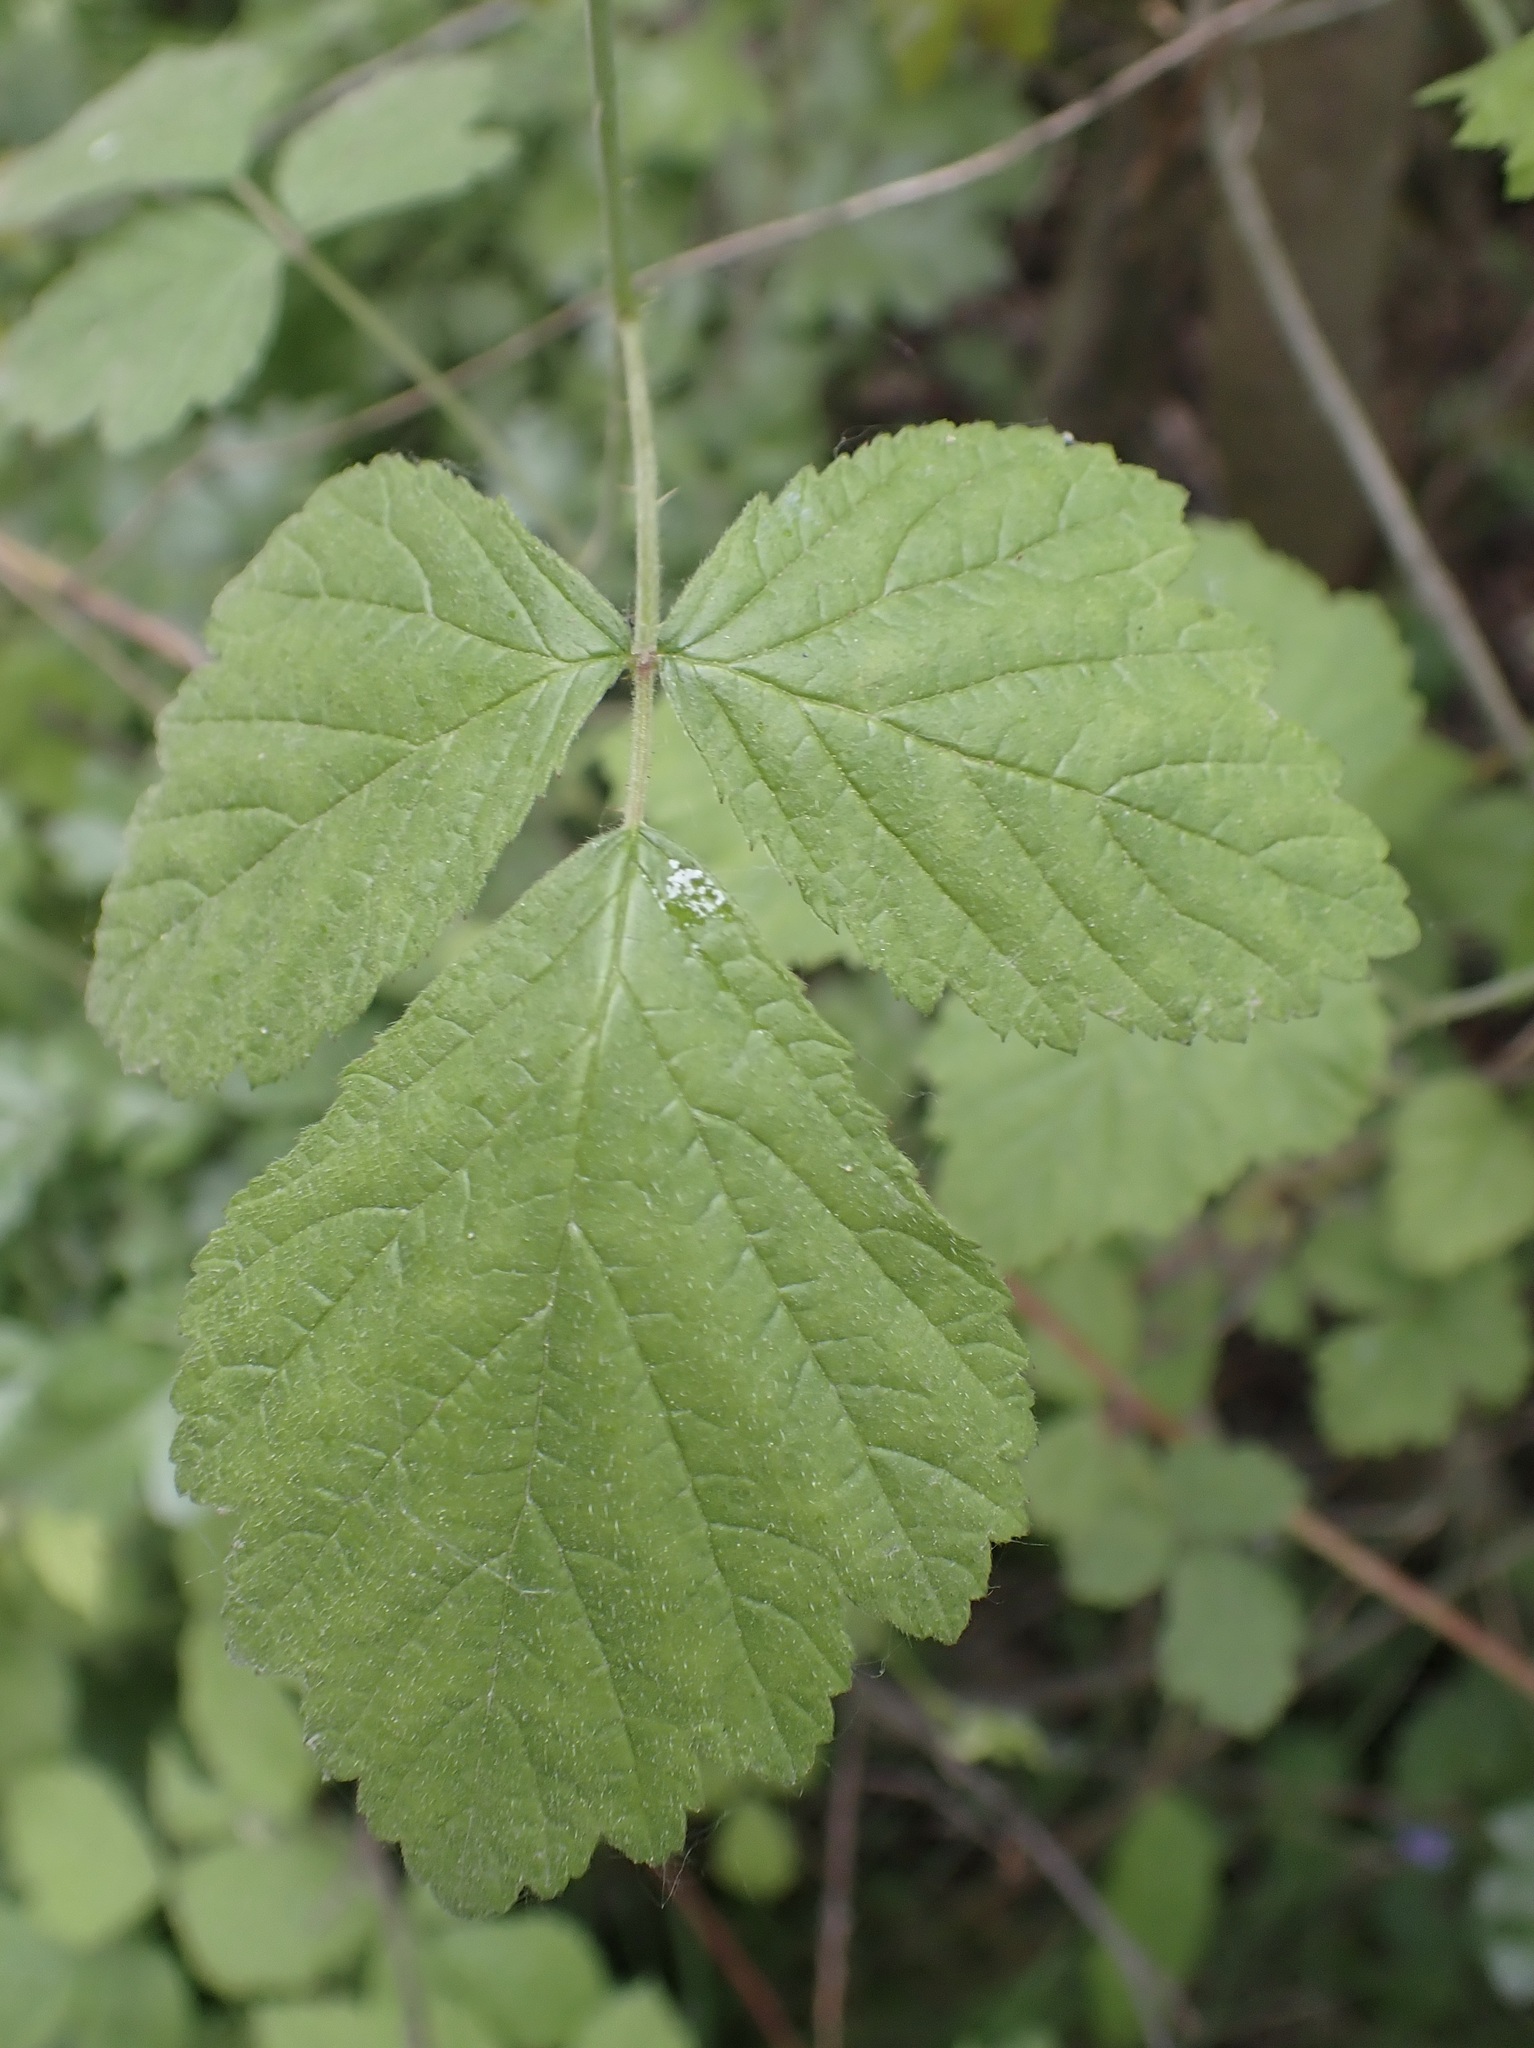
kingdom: Plantae
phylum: Tracheophyta
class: Magnoliopsida
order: Rosales
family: Rosaceae
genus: Rubus
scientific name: Rubus caesius
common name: Dewberry
